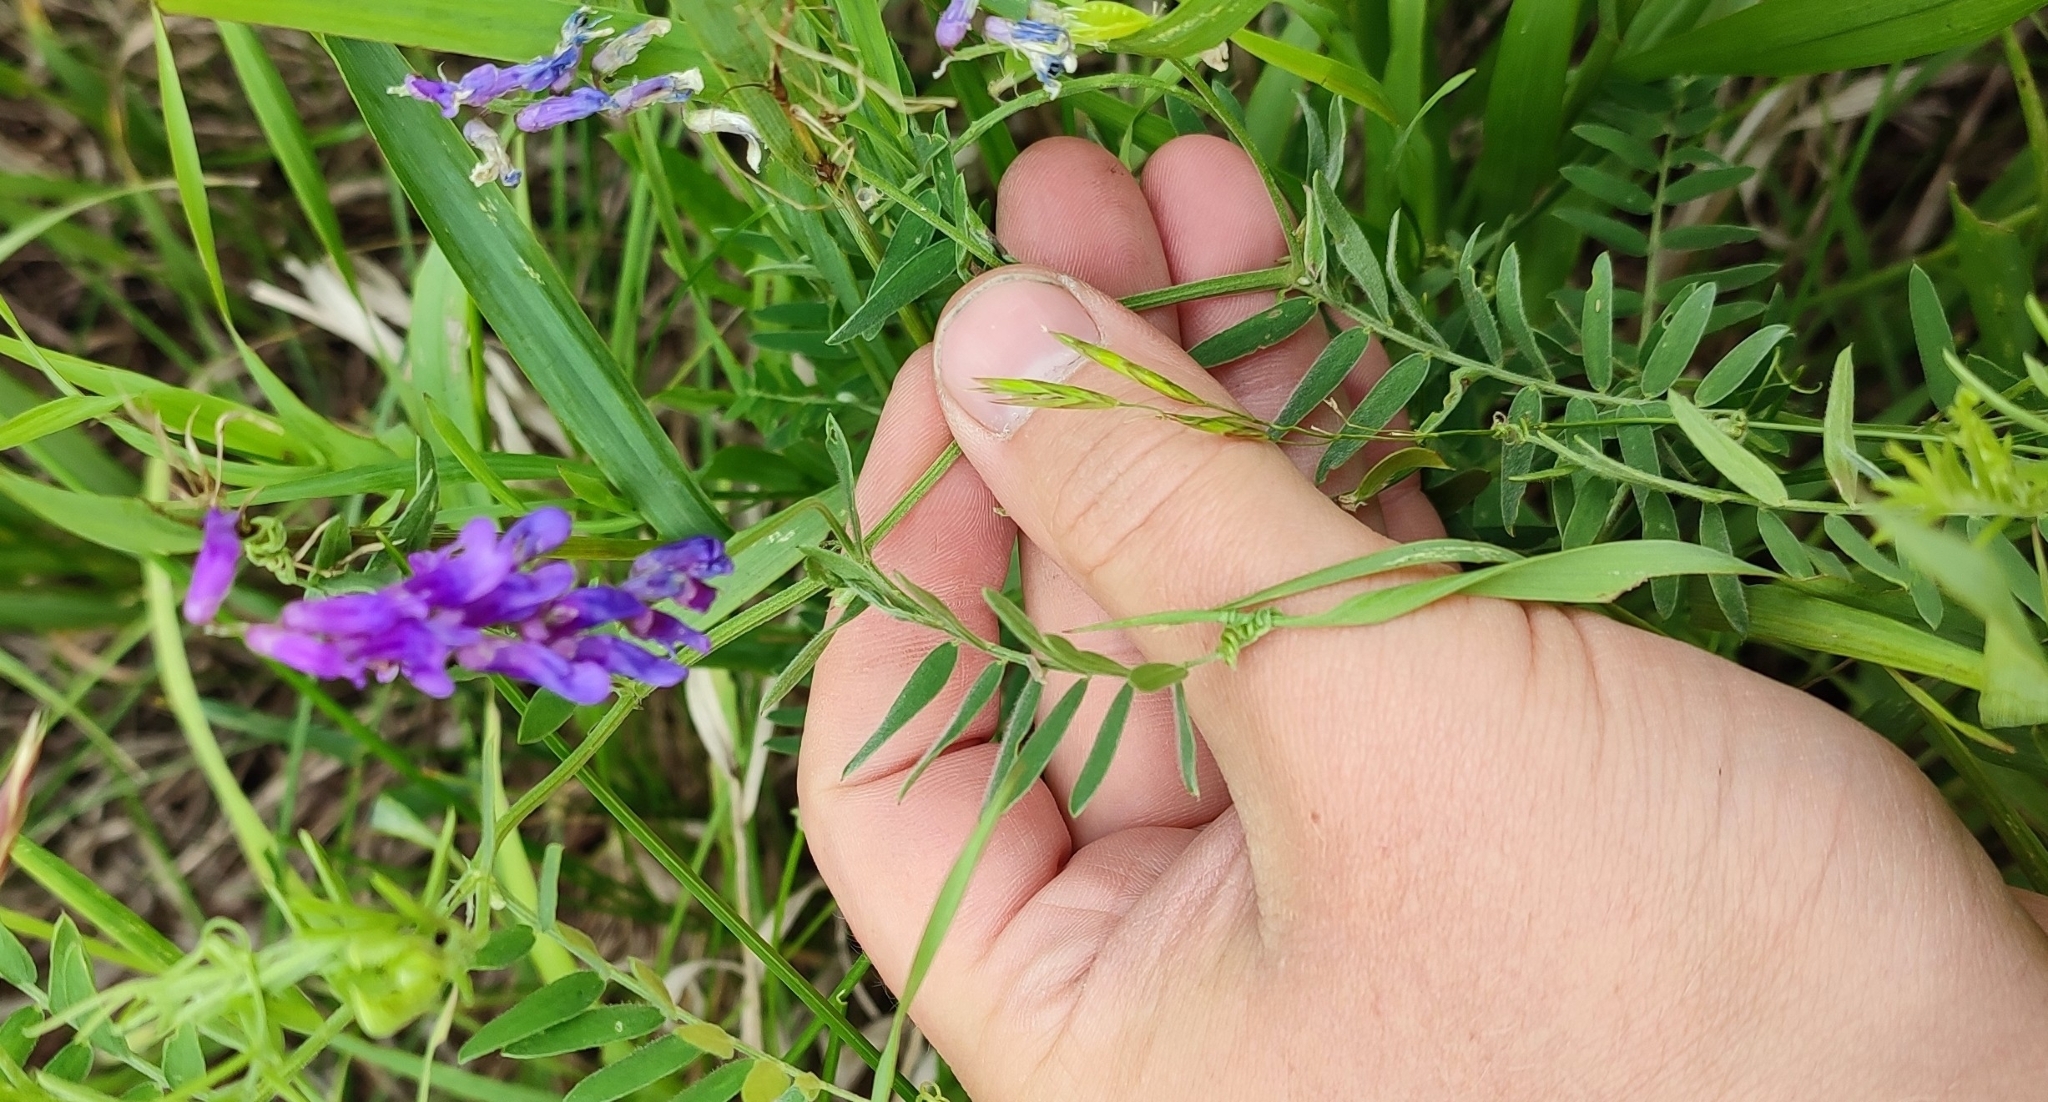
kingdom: Plantae
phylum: Tracheophyta
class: Magnoliopsida
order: Fabales
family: Fabaceae
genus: Vicia
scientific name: Vicia cracca
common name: Bird vetch
